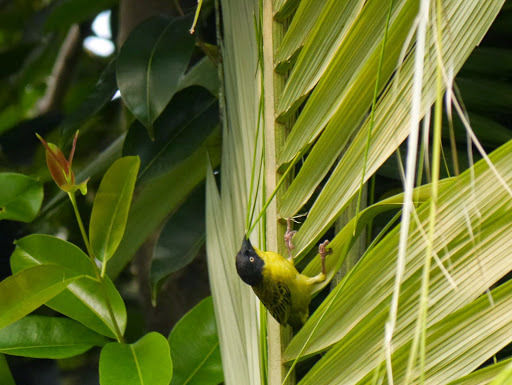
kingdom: Animalia
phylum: Chordata
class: Aves
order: Passeriformes
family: Ploceidae
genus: Ploceus
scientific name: Ploceus baglafecht
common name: Baglafecht weaver
